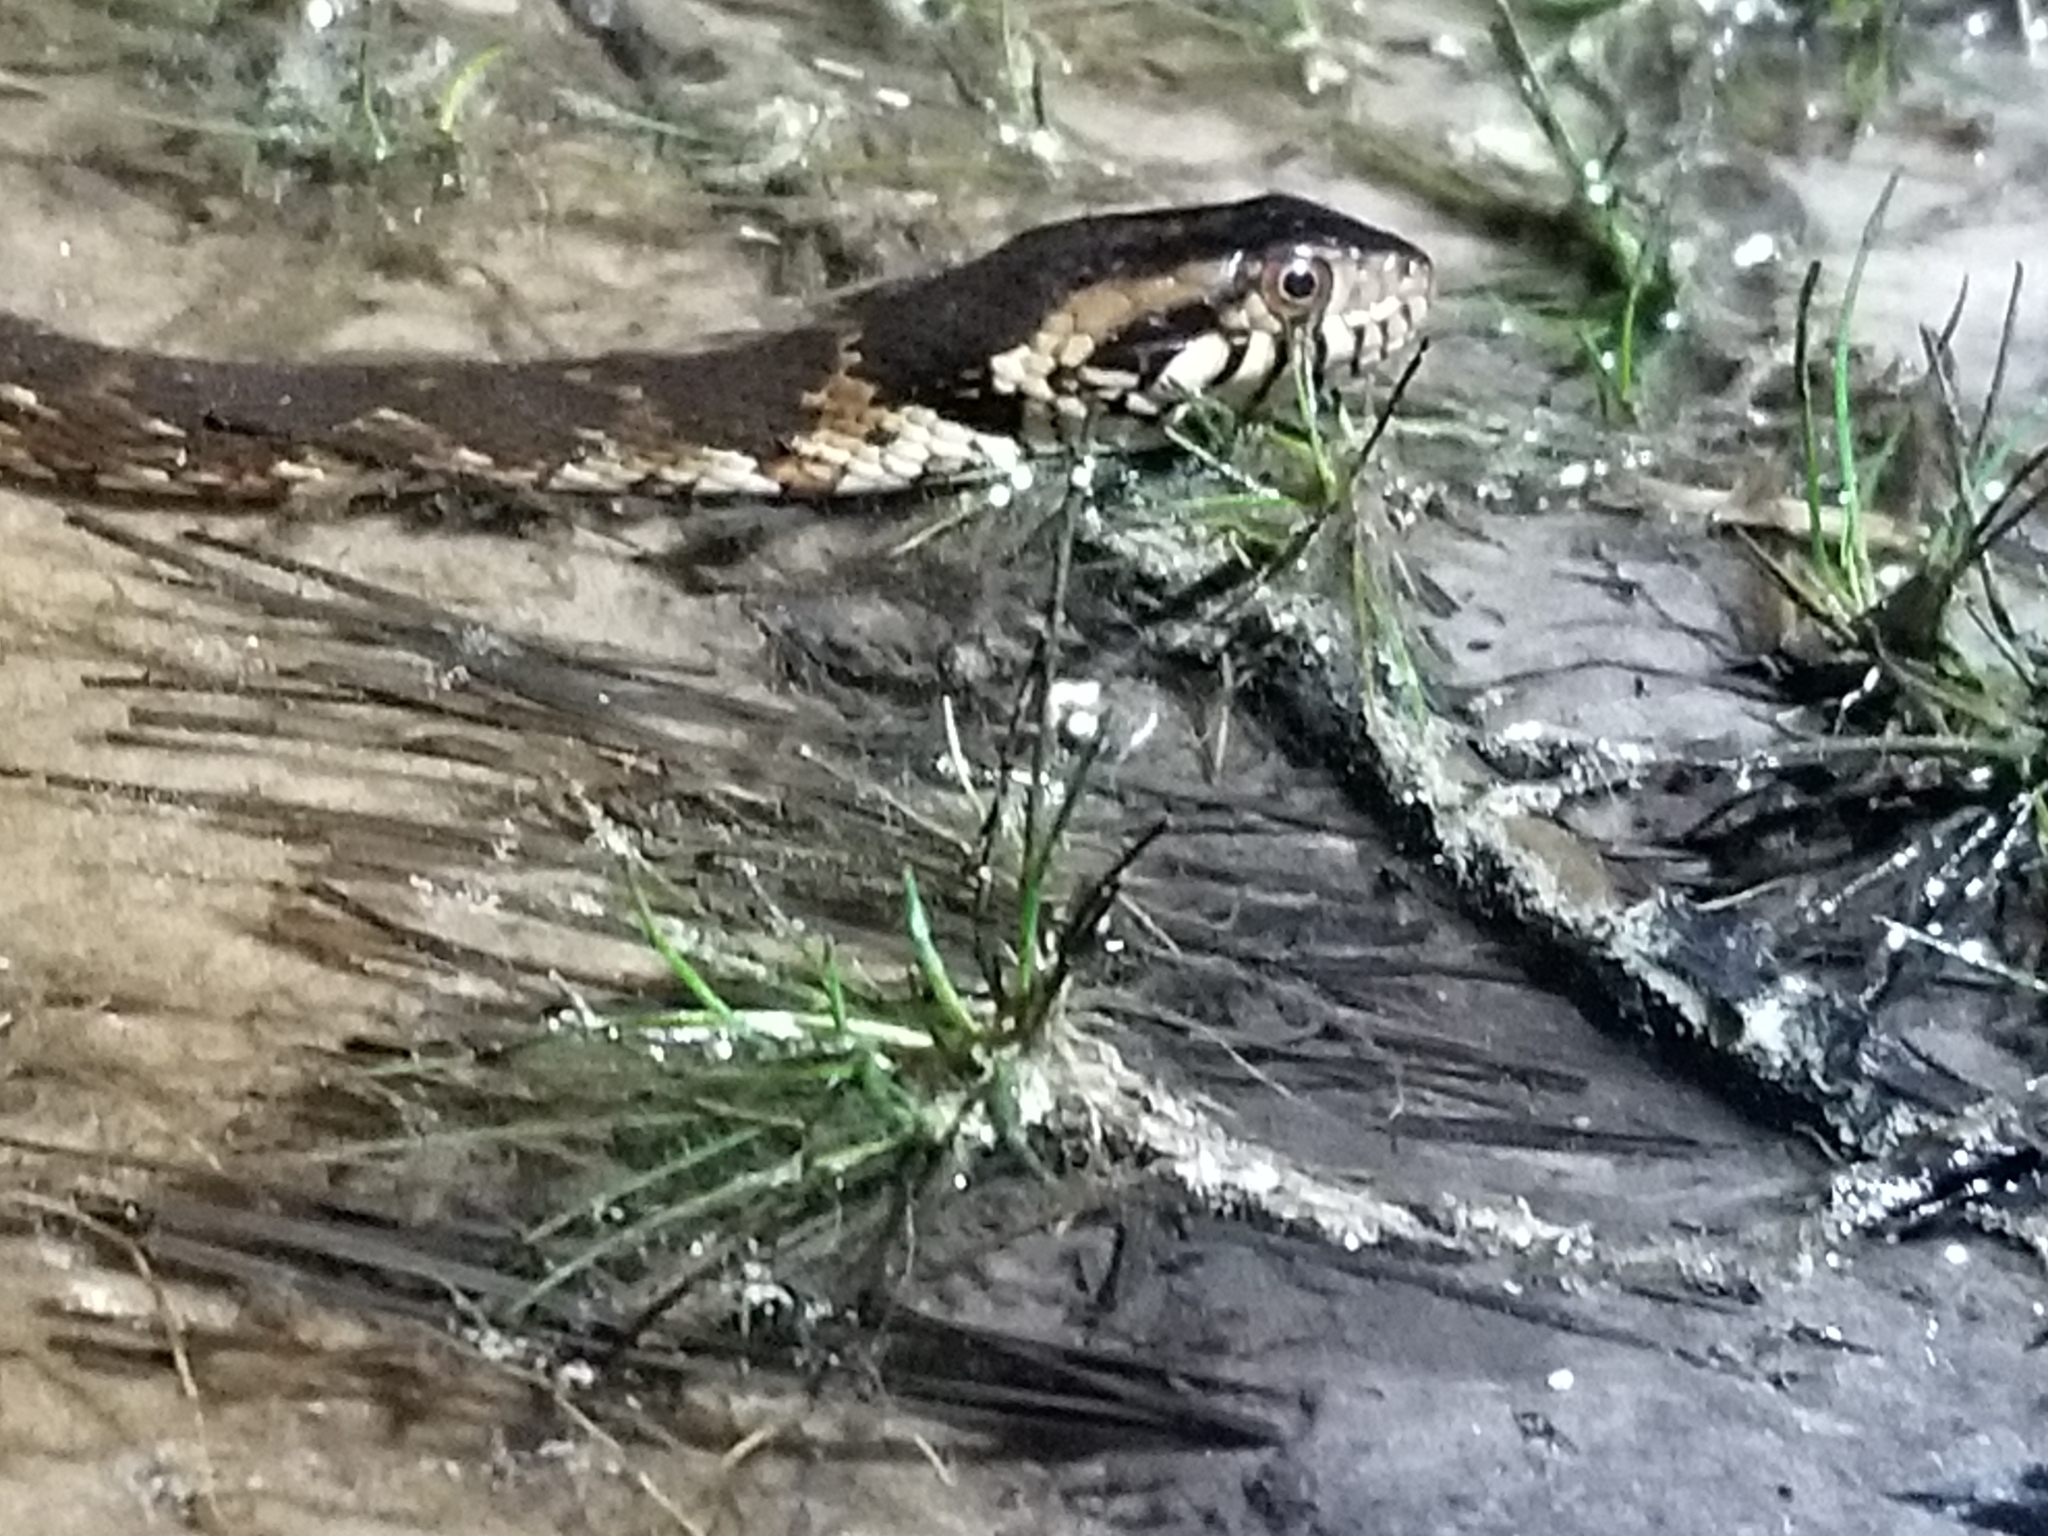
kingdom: Animalia
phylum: Chordata
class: Squamata
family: Colubridae
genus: Nerodia
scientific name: Nerodia fasciata
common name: Southern water snake
